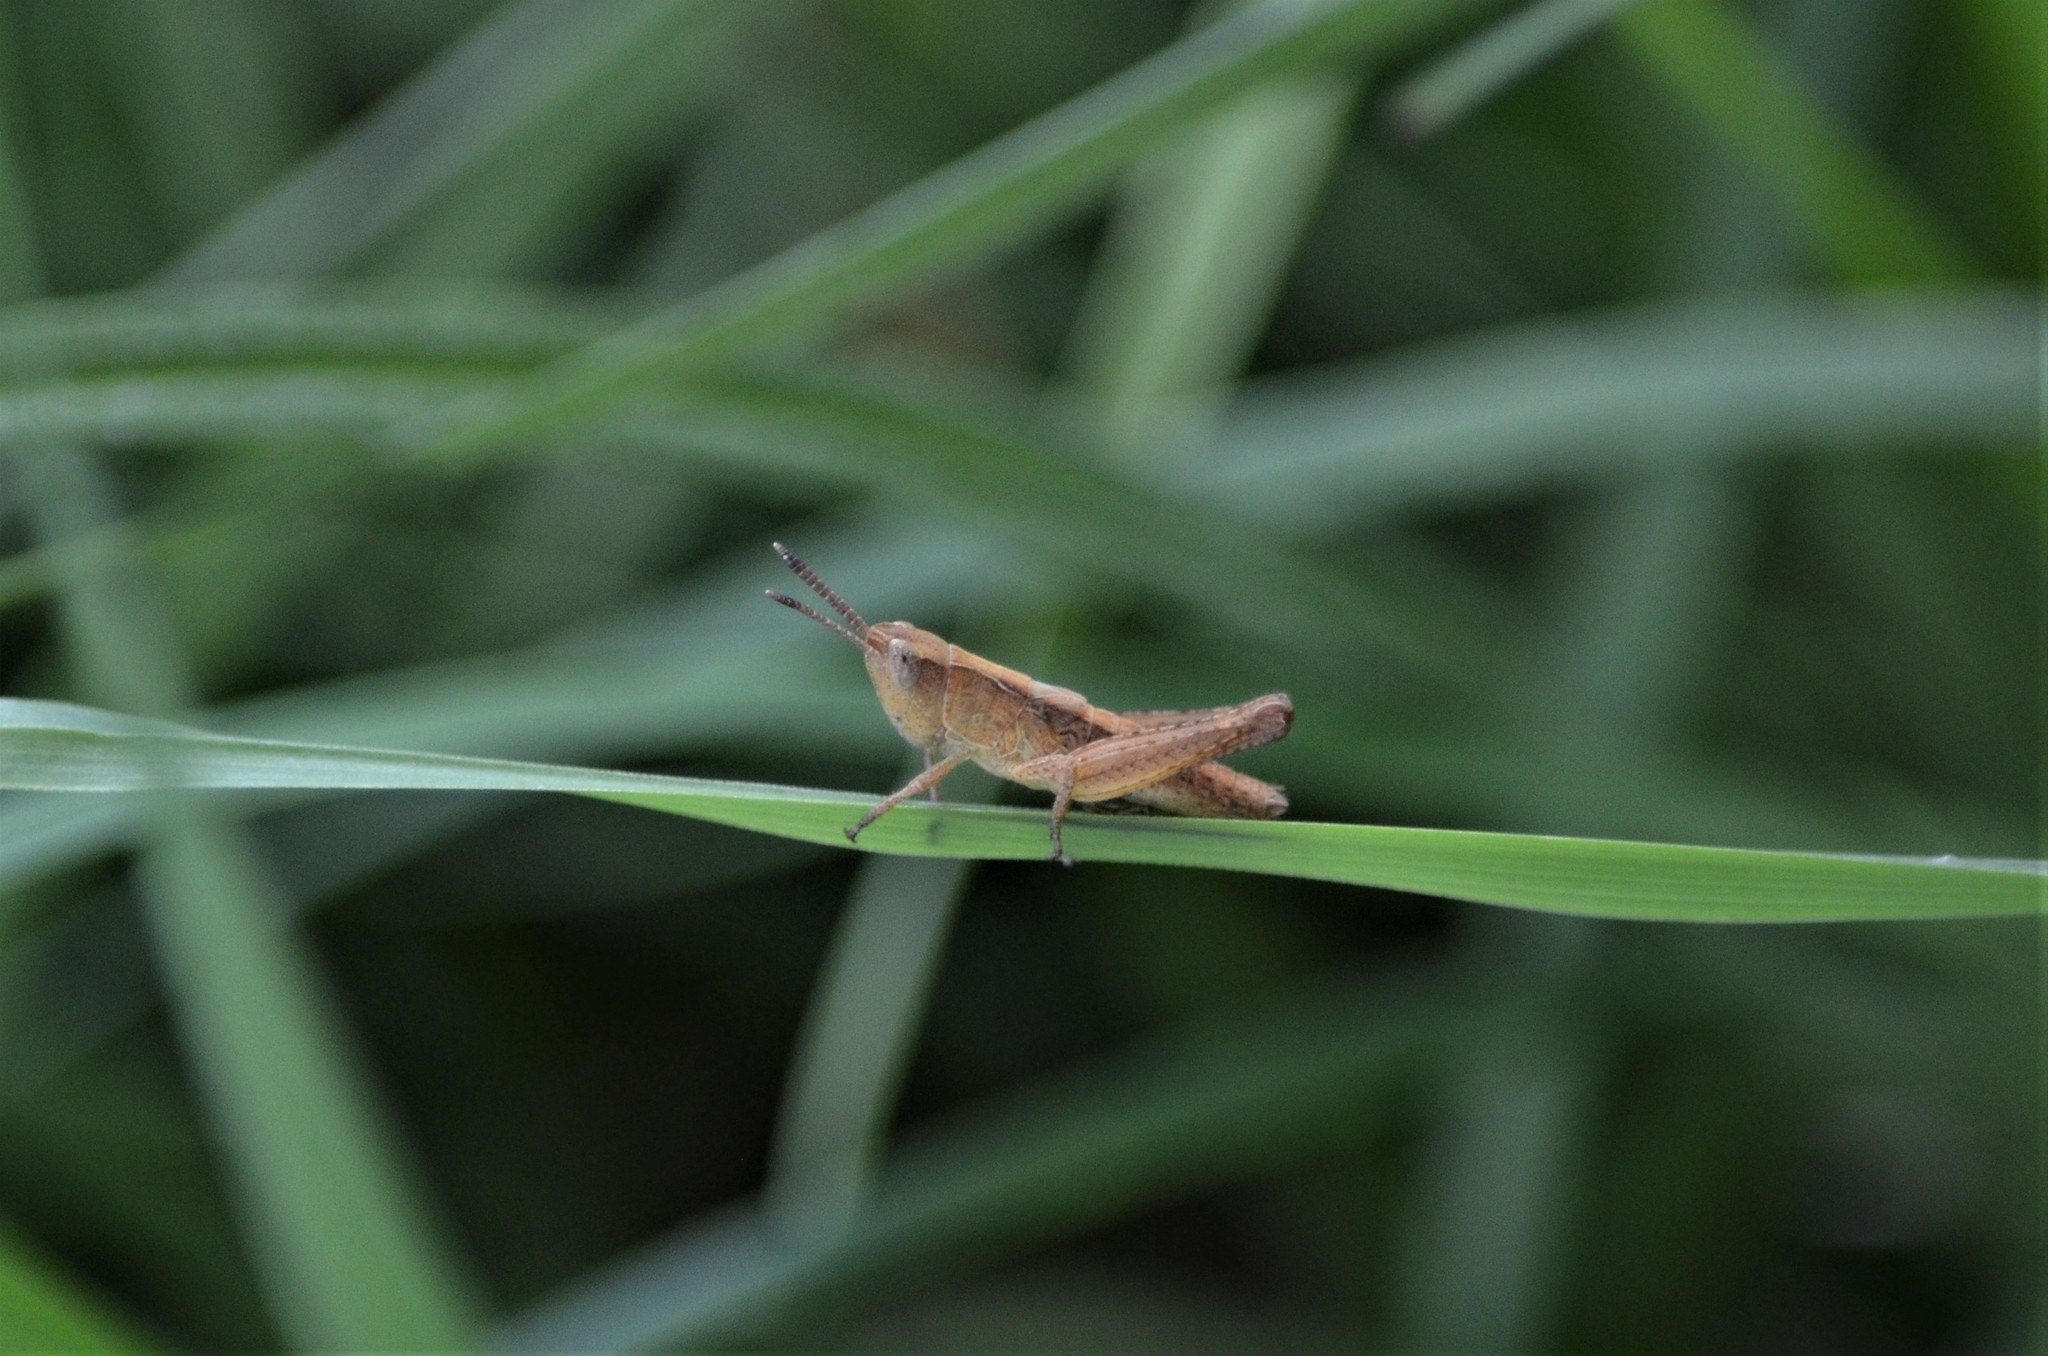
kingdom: Animalia
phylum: Arthropoda
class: Insecta
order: Orthoptera
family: Acrididae
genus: Gomphocerippus
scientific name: Gomphocerippus rufus
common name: Rufous grasshopper
